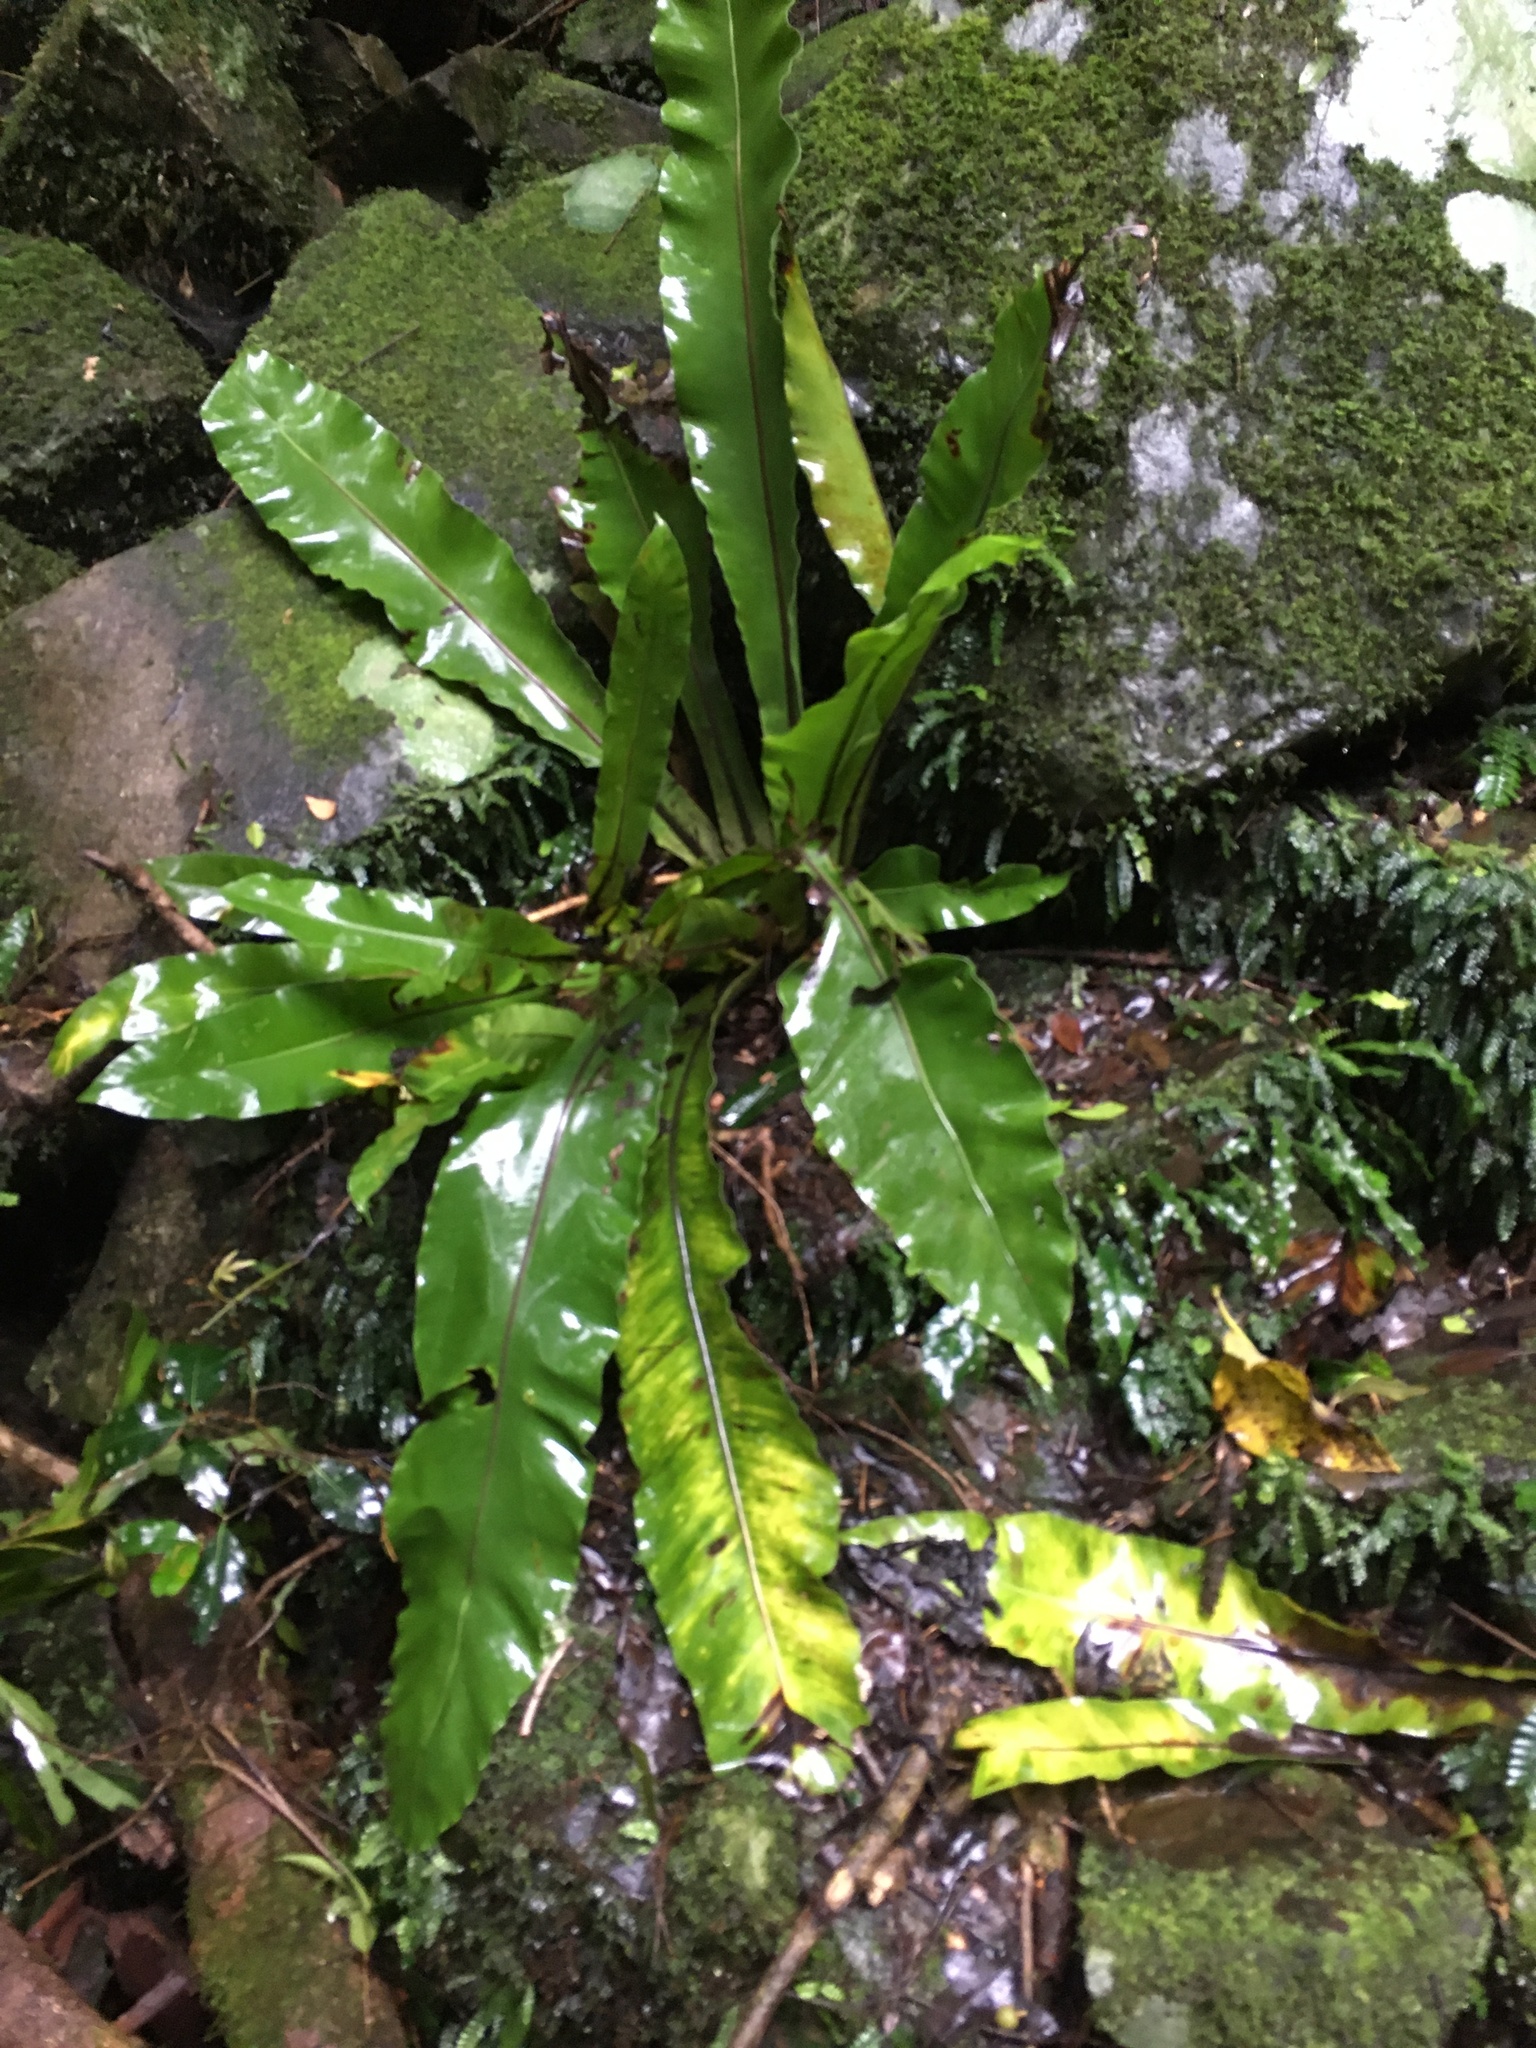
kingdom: Plantae
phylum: Tracheophyta
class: Polypodiopsida
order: Polypodiales
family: Aspleniaceae
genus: Asplenium
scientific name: Asplenium australasicum
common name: Bird's-nest fern
